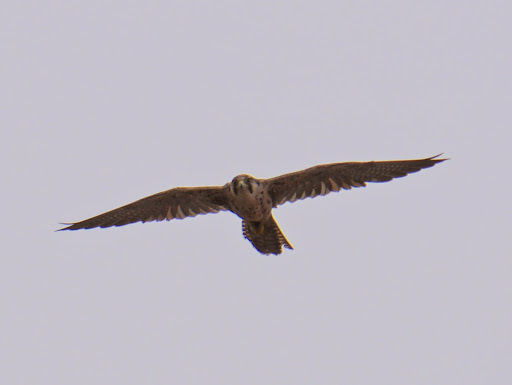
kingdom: Animalia
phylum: Chordata
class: Aves
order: Falconiformes
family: Falconidae
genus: Falco
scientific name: Falco biarmicus
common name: Lanner falcon
